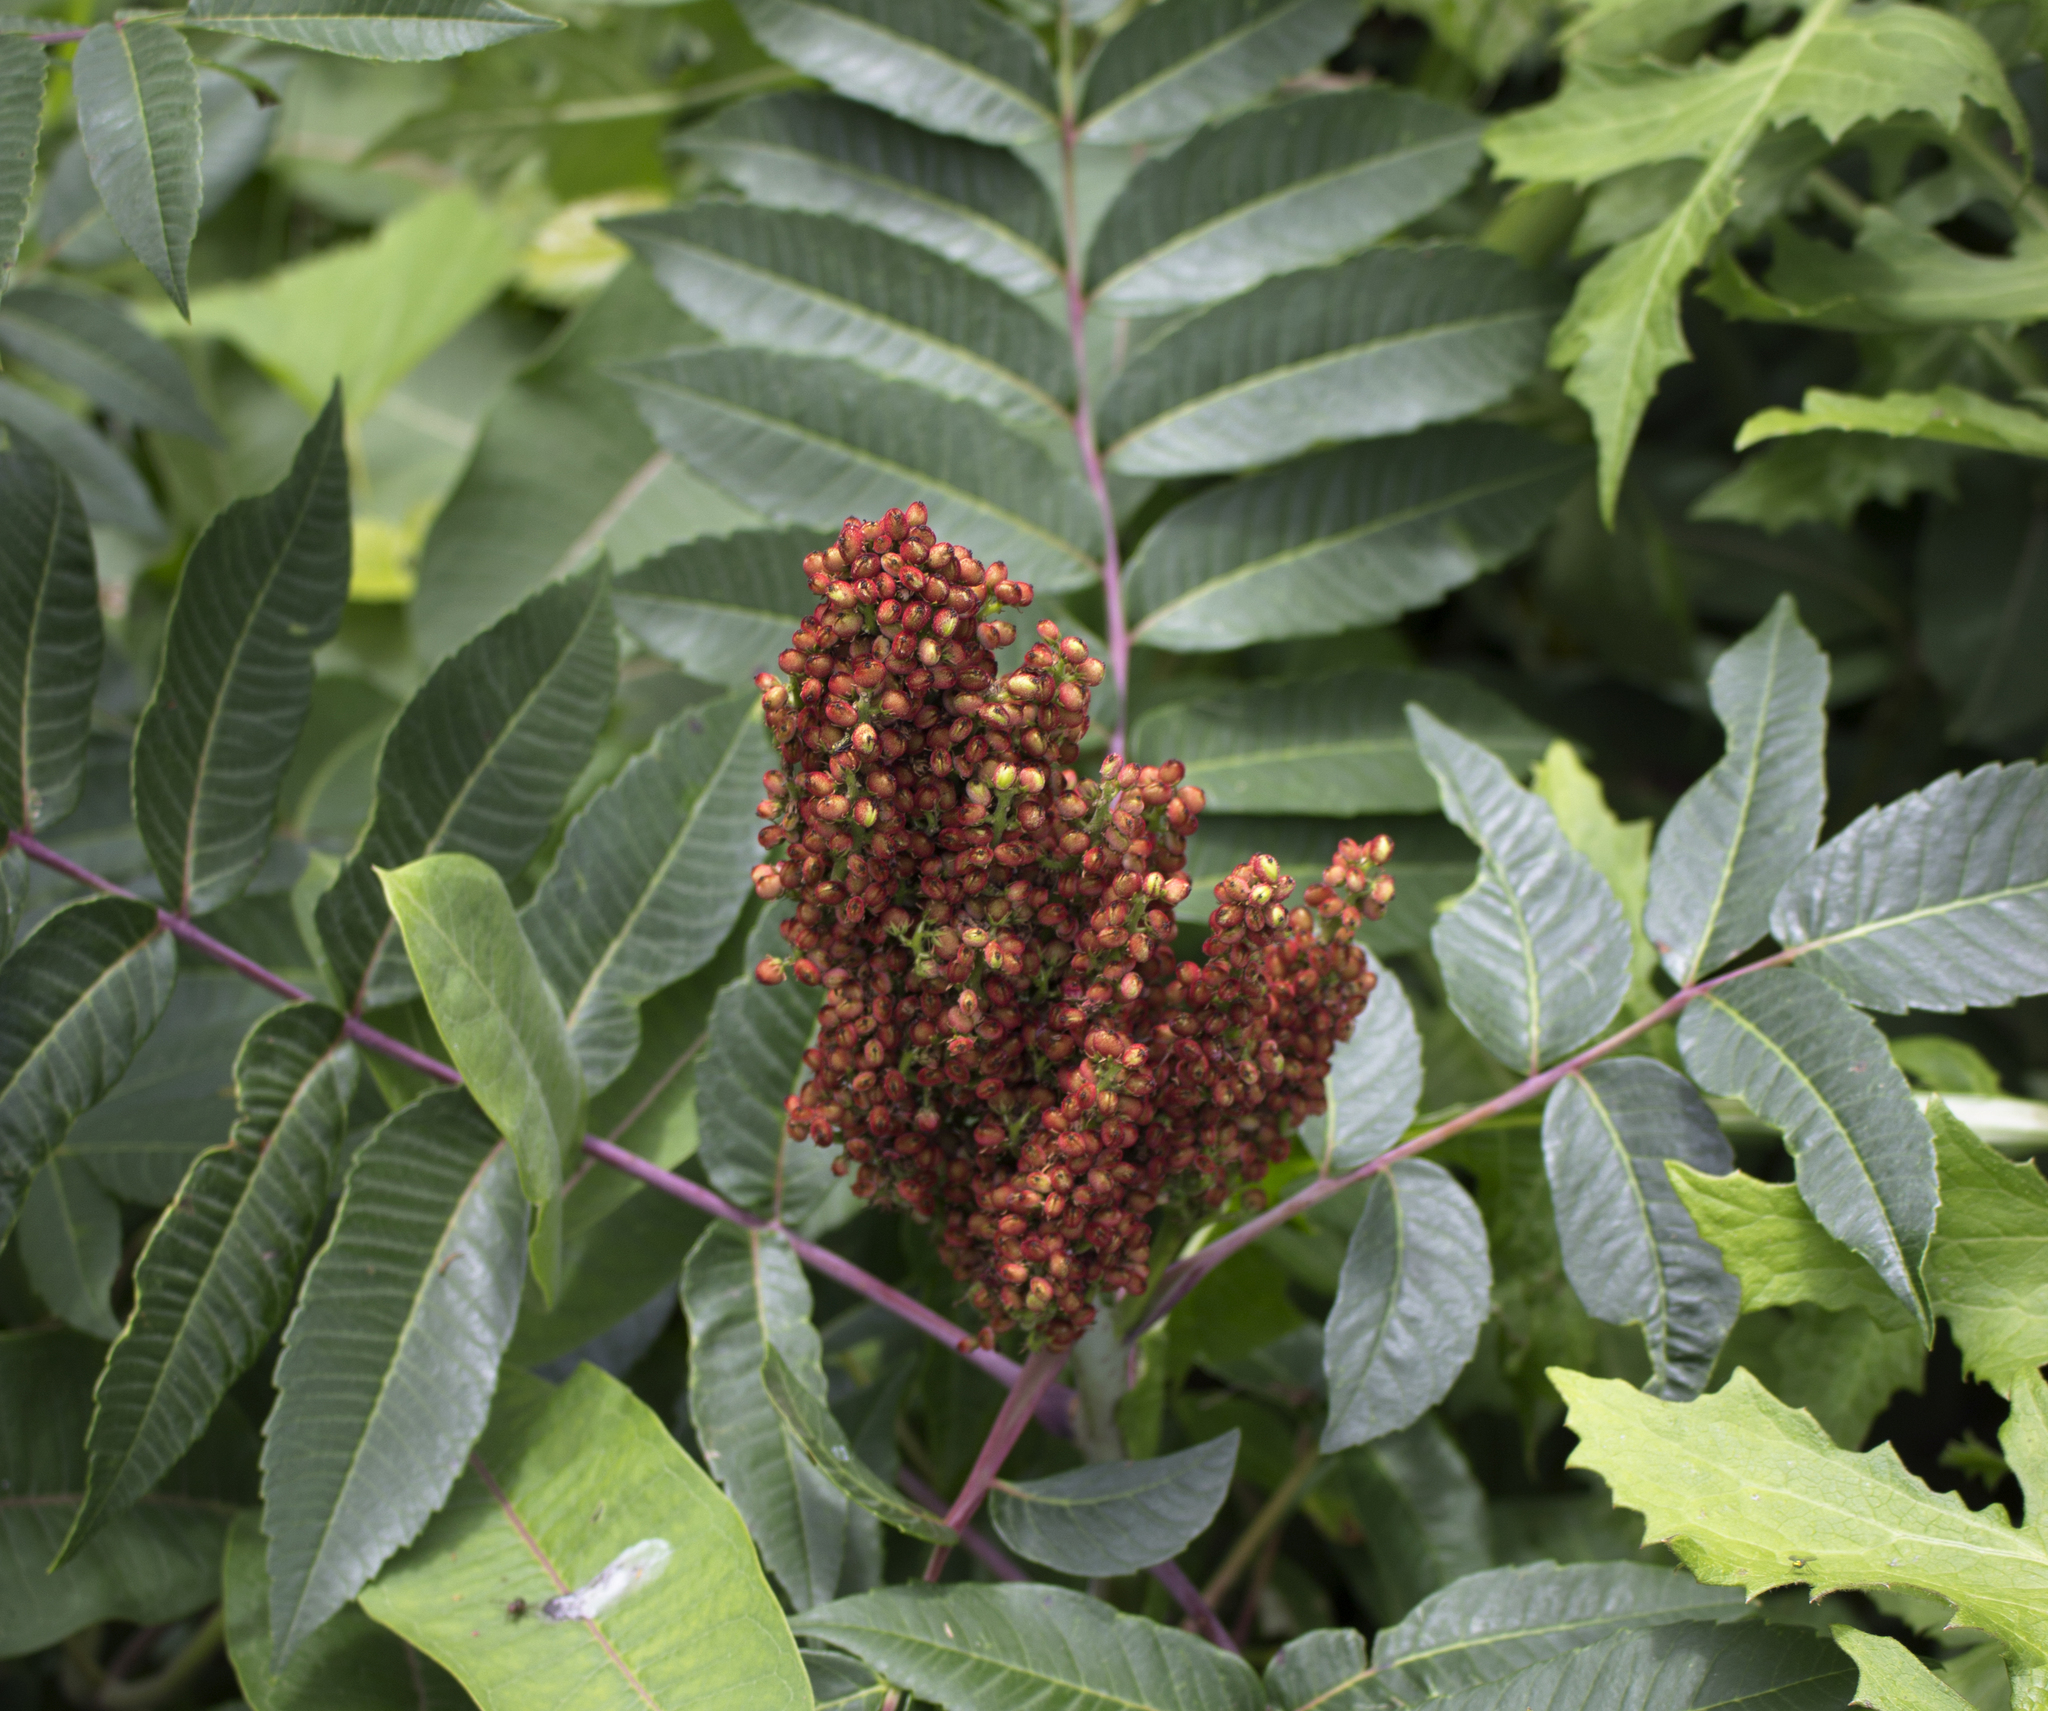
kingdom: Plantae
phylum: Tracheophyta
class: Magnoliopsida
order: Sapindales
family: Anacardiaceae
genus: Rhus
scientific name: Rhus glabra
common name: Scarlet sumac
